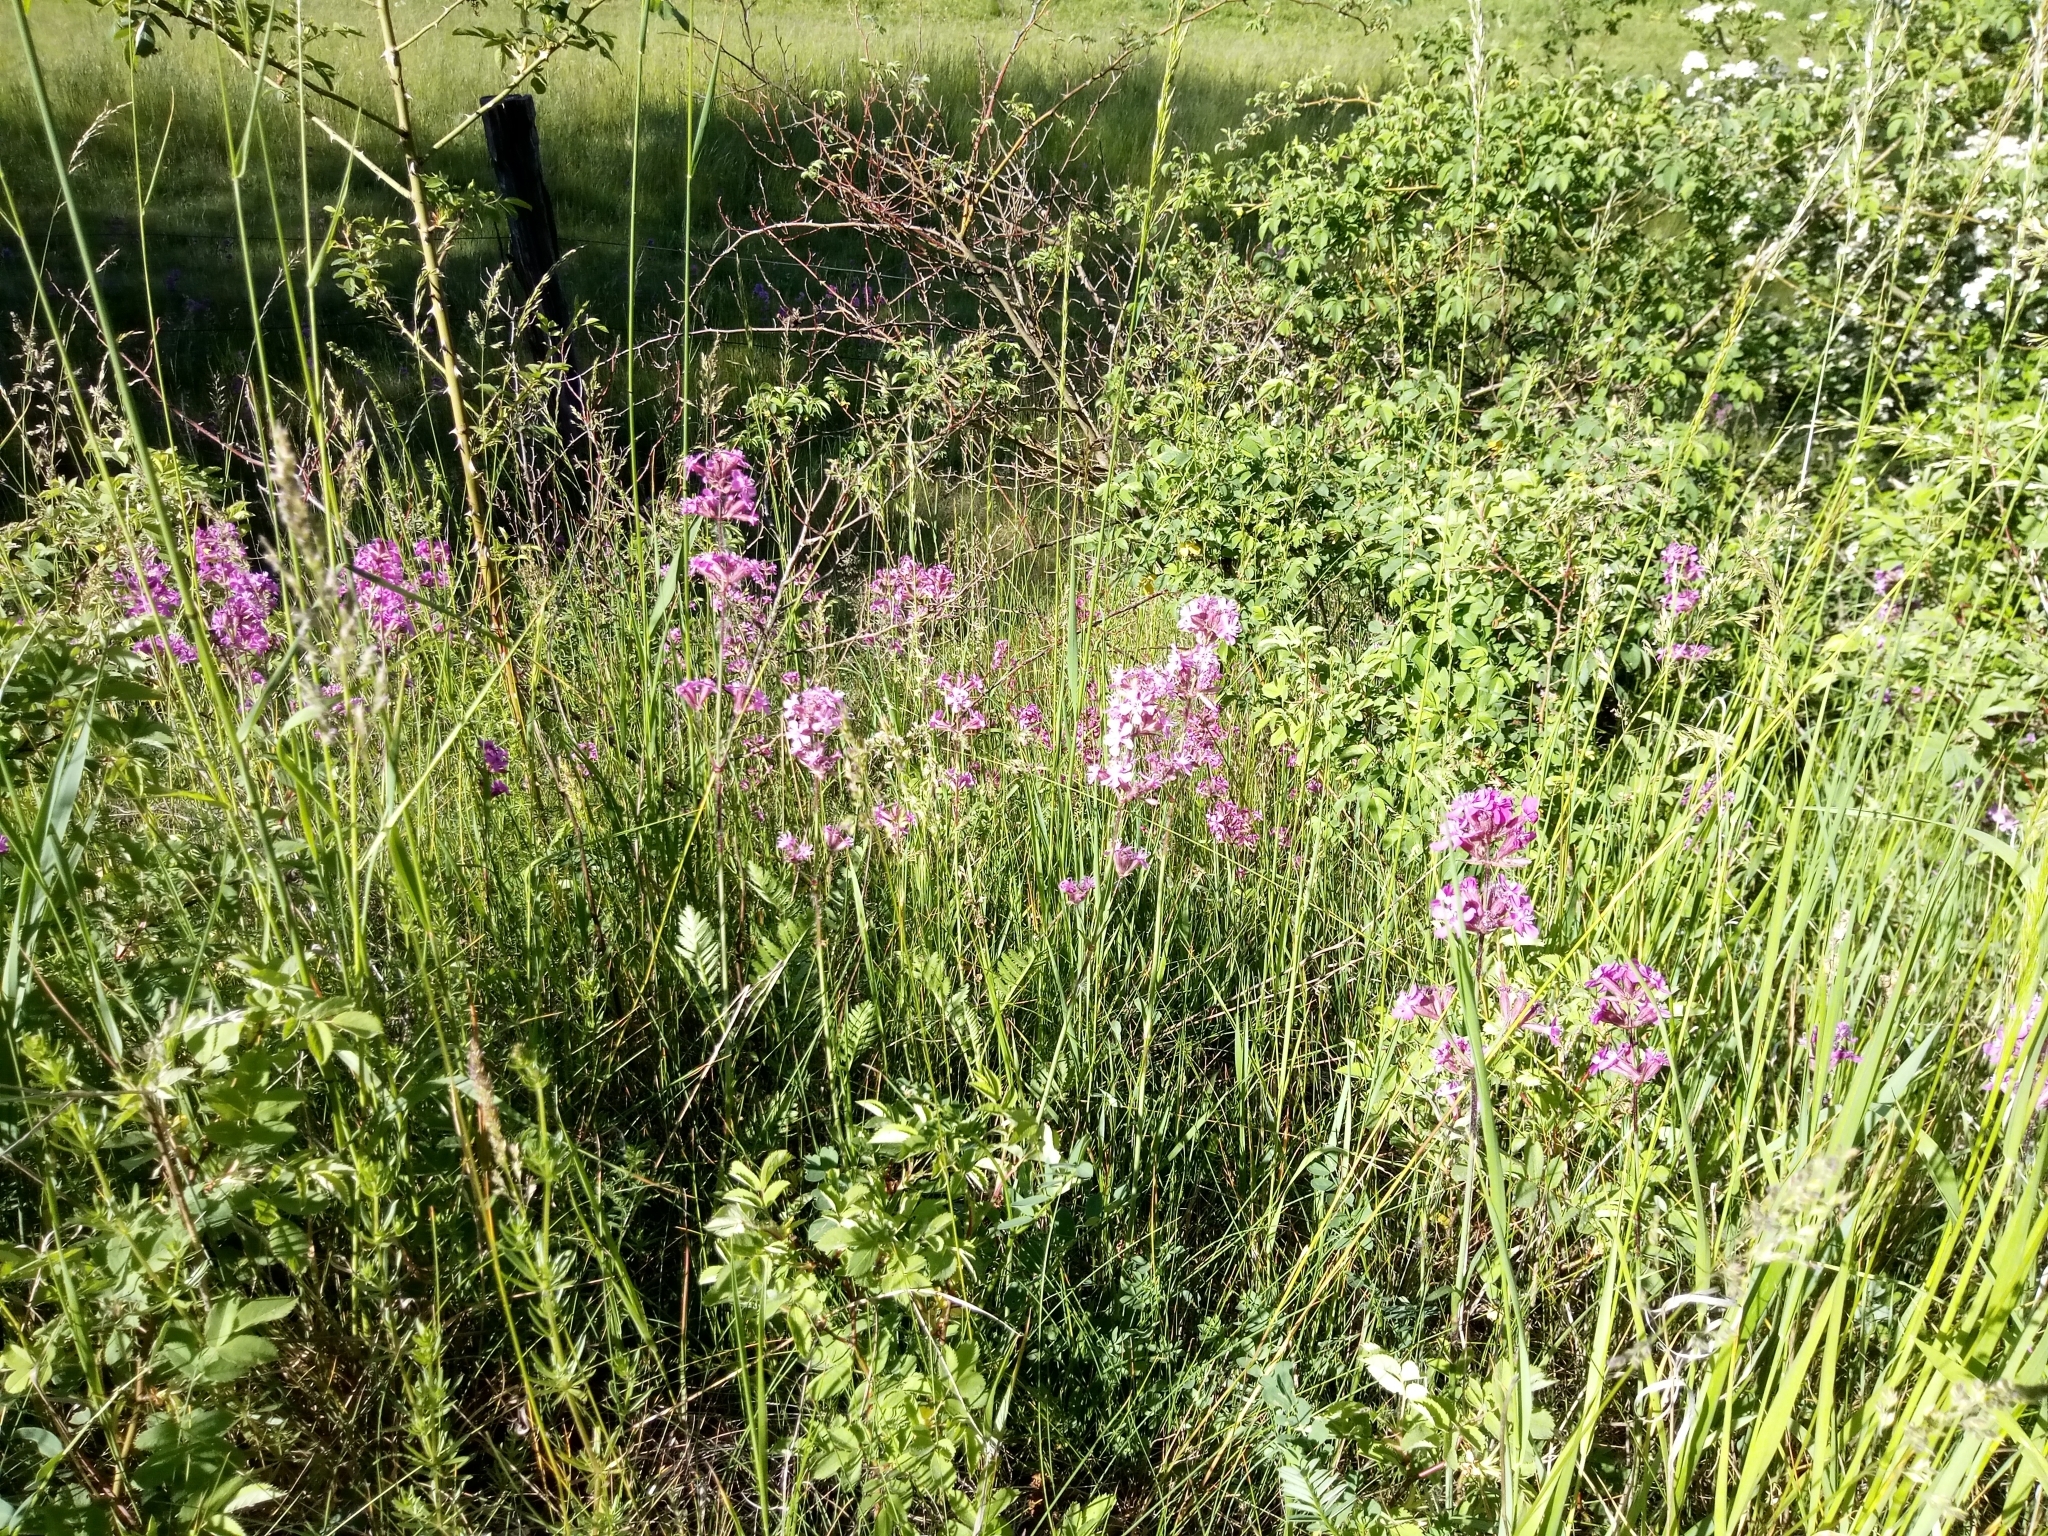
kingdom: Plantae
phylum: Tracheophyta
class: Magnoliopsida
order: Caryophyllales
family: Caryophyllaceae
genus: Viscaria
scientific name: Viscaria vulgaris
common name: Clammy campion
